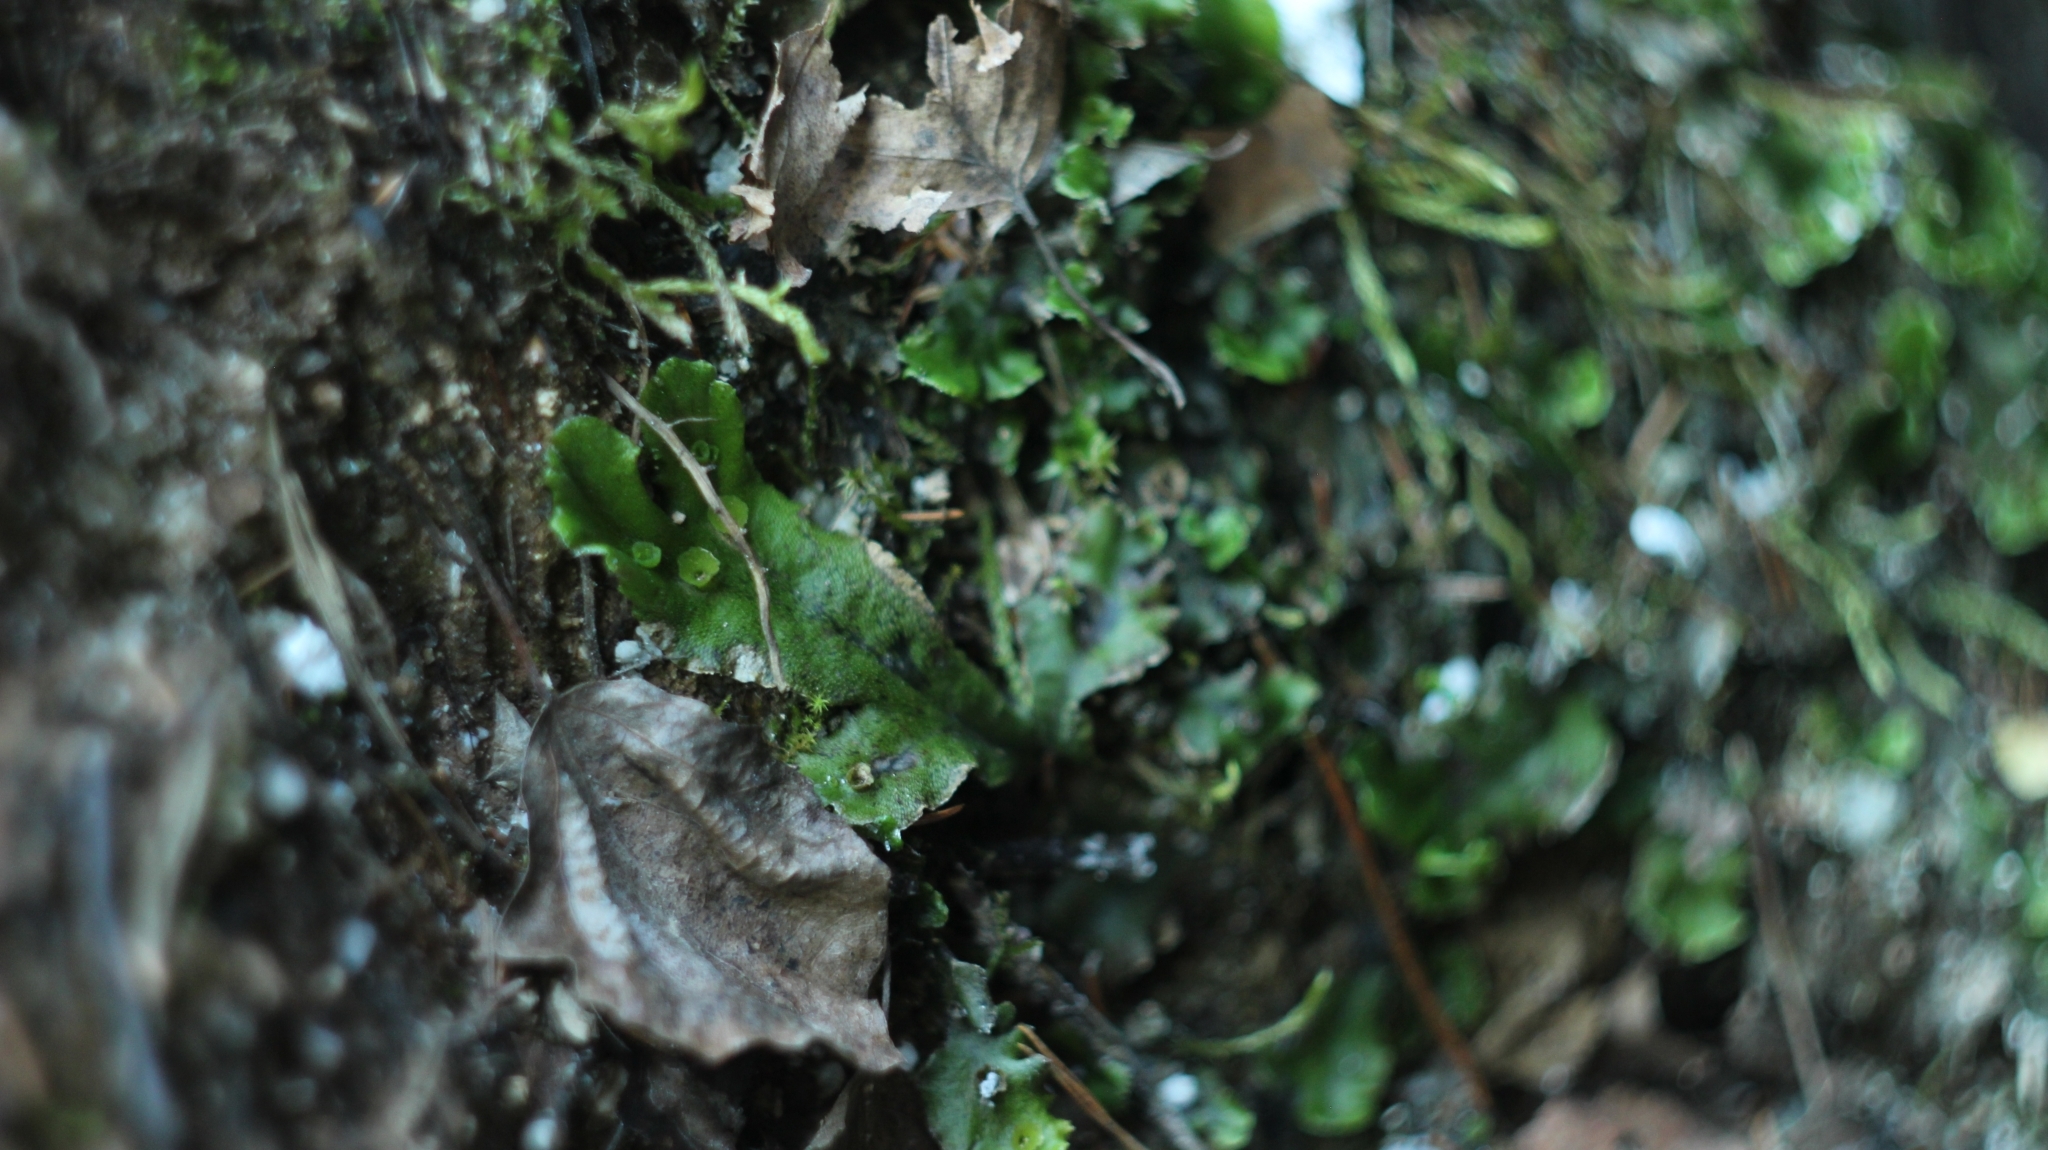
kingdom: Plantae
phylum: Marchantiophyta
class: Marchantiopsida
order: Marchantiales
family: Marchantiaceae
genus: Marchantia
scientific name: Marchantia polymorpha
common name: Common liverwort
